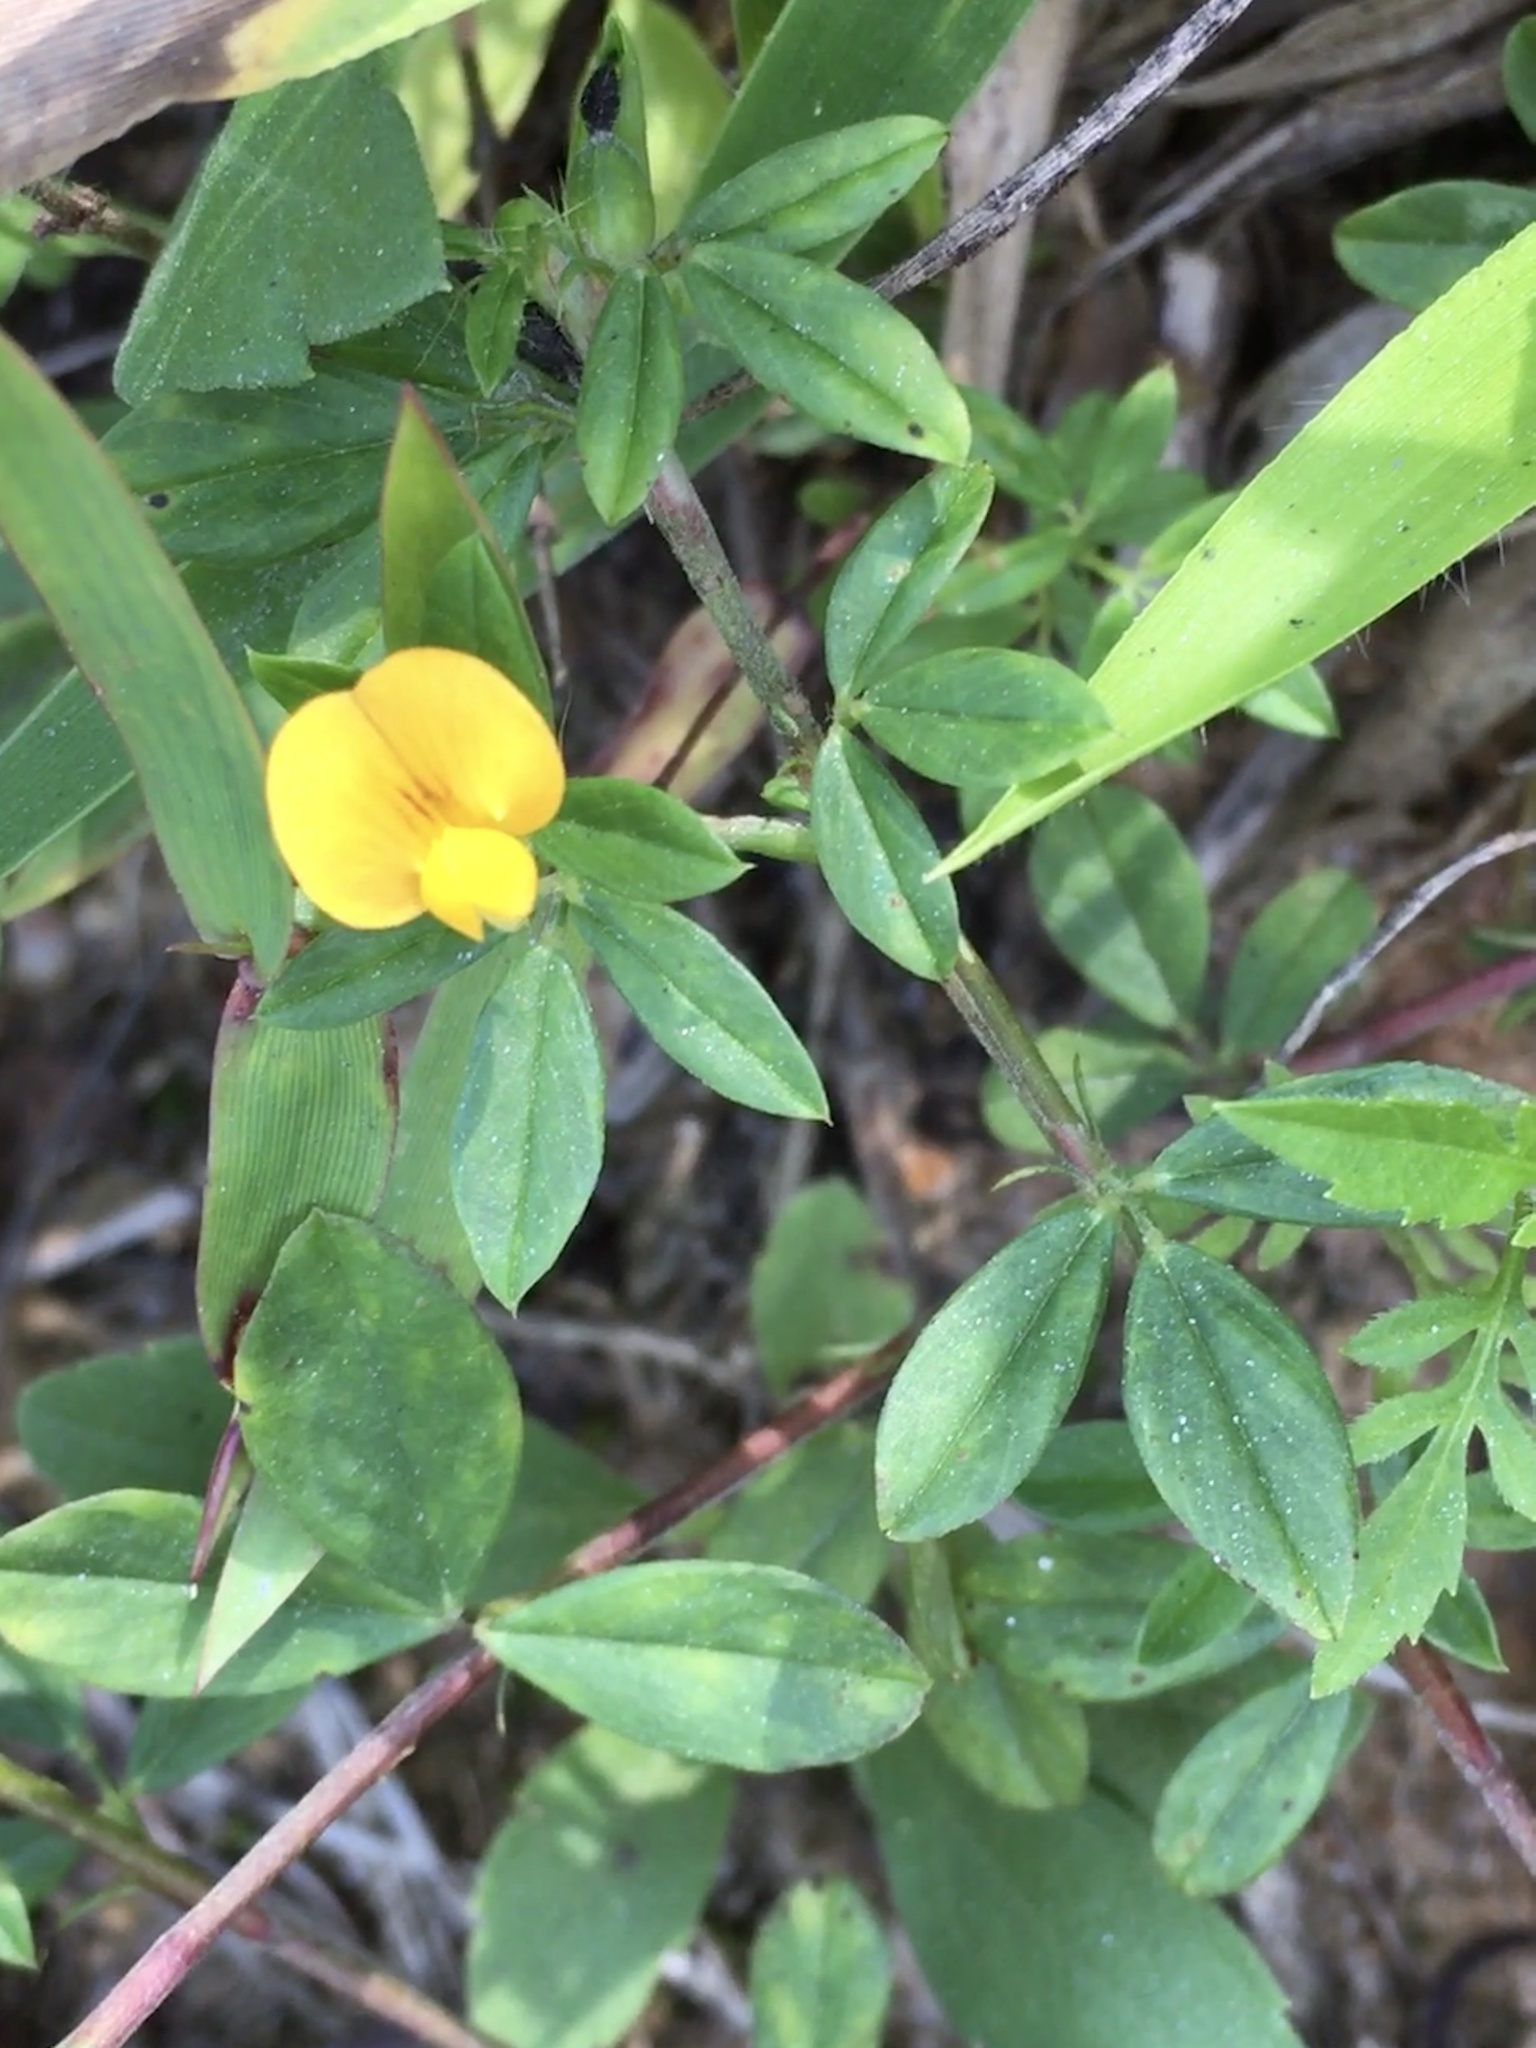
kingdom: Plantae
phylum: Tracheophyta
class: Magnoliopsida
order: Fabales
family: Fabaceae
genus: Stylosanthes
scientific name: Stylosanthes biflora
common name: Two-flower pencil-flower
